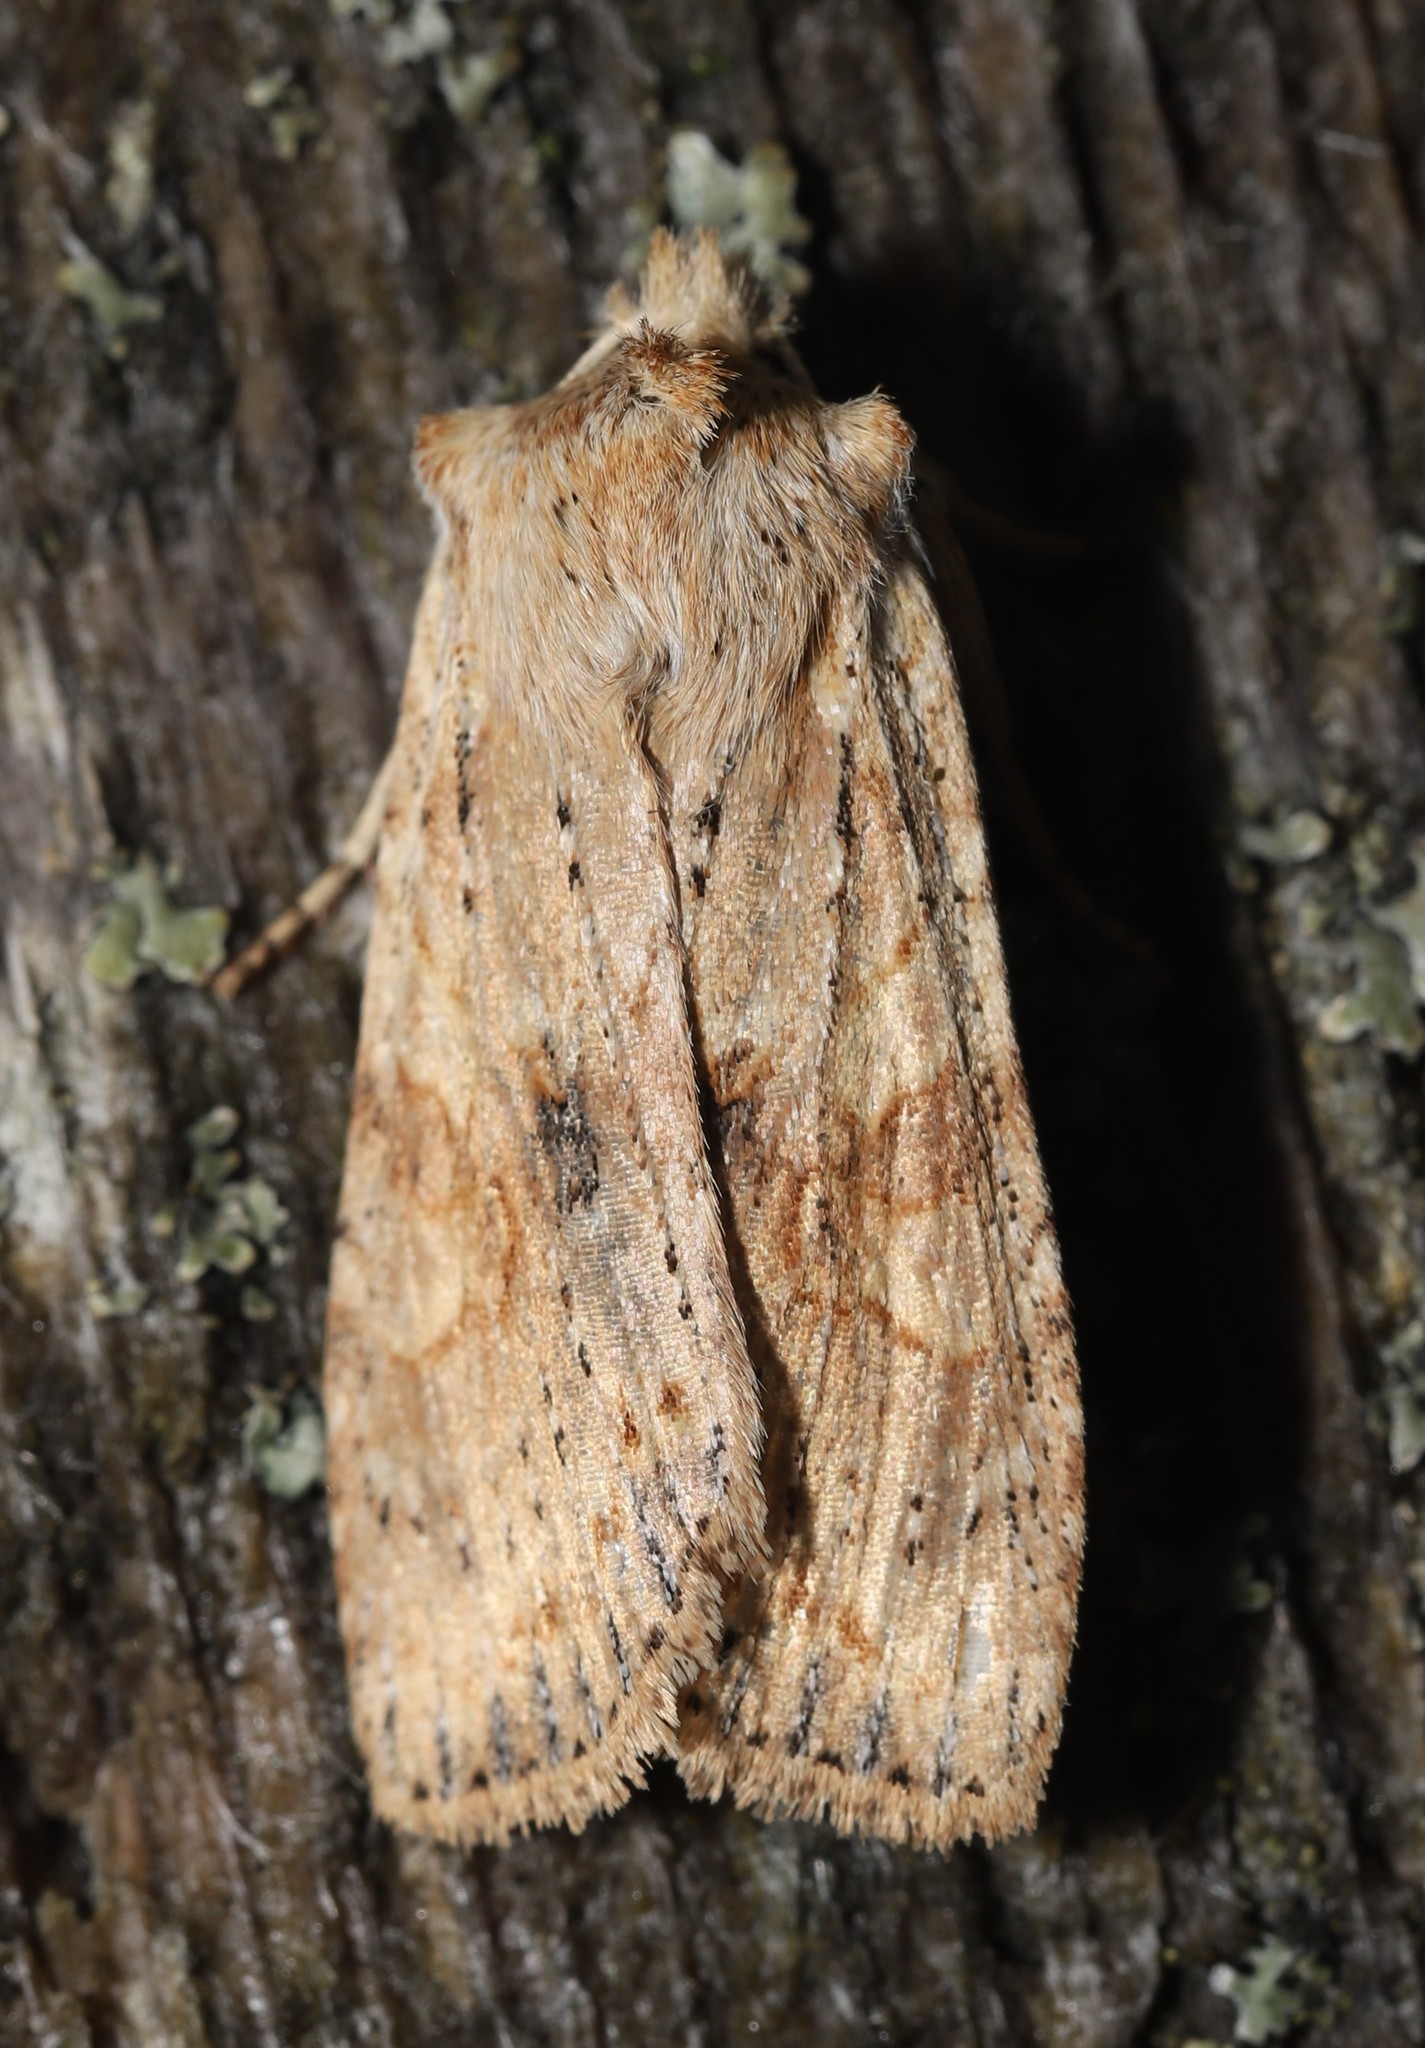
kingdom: Animalia
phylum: Arthropoda
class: Insecta
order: Lepidoptera
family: Noctuidae
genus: Lithophane
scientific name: Lithophane innominata
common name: Nameless pinion moth
